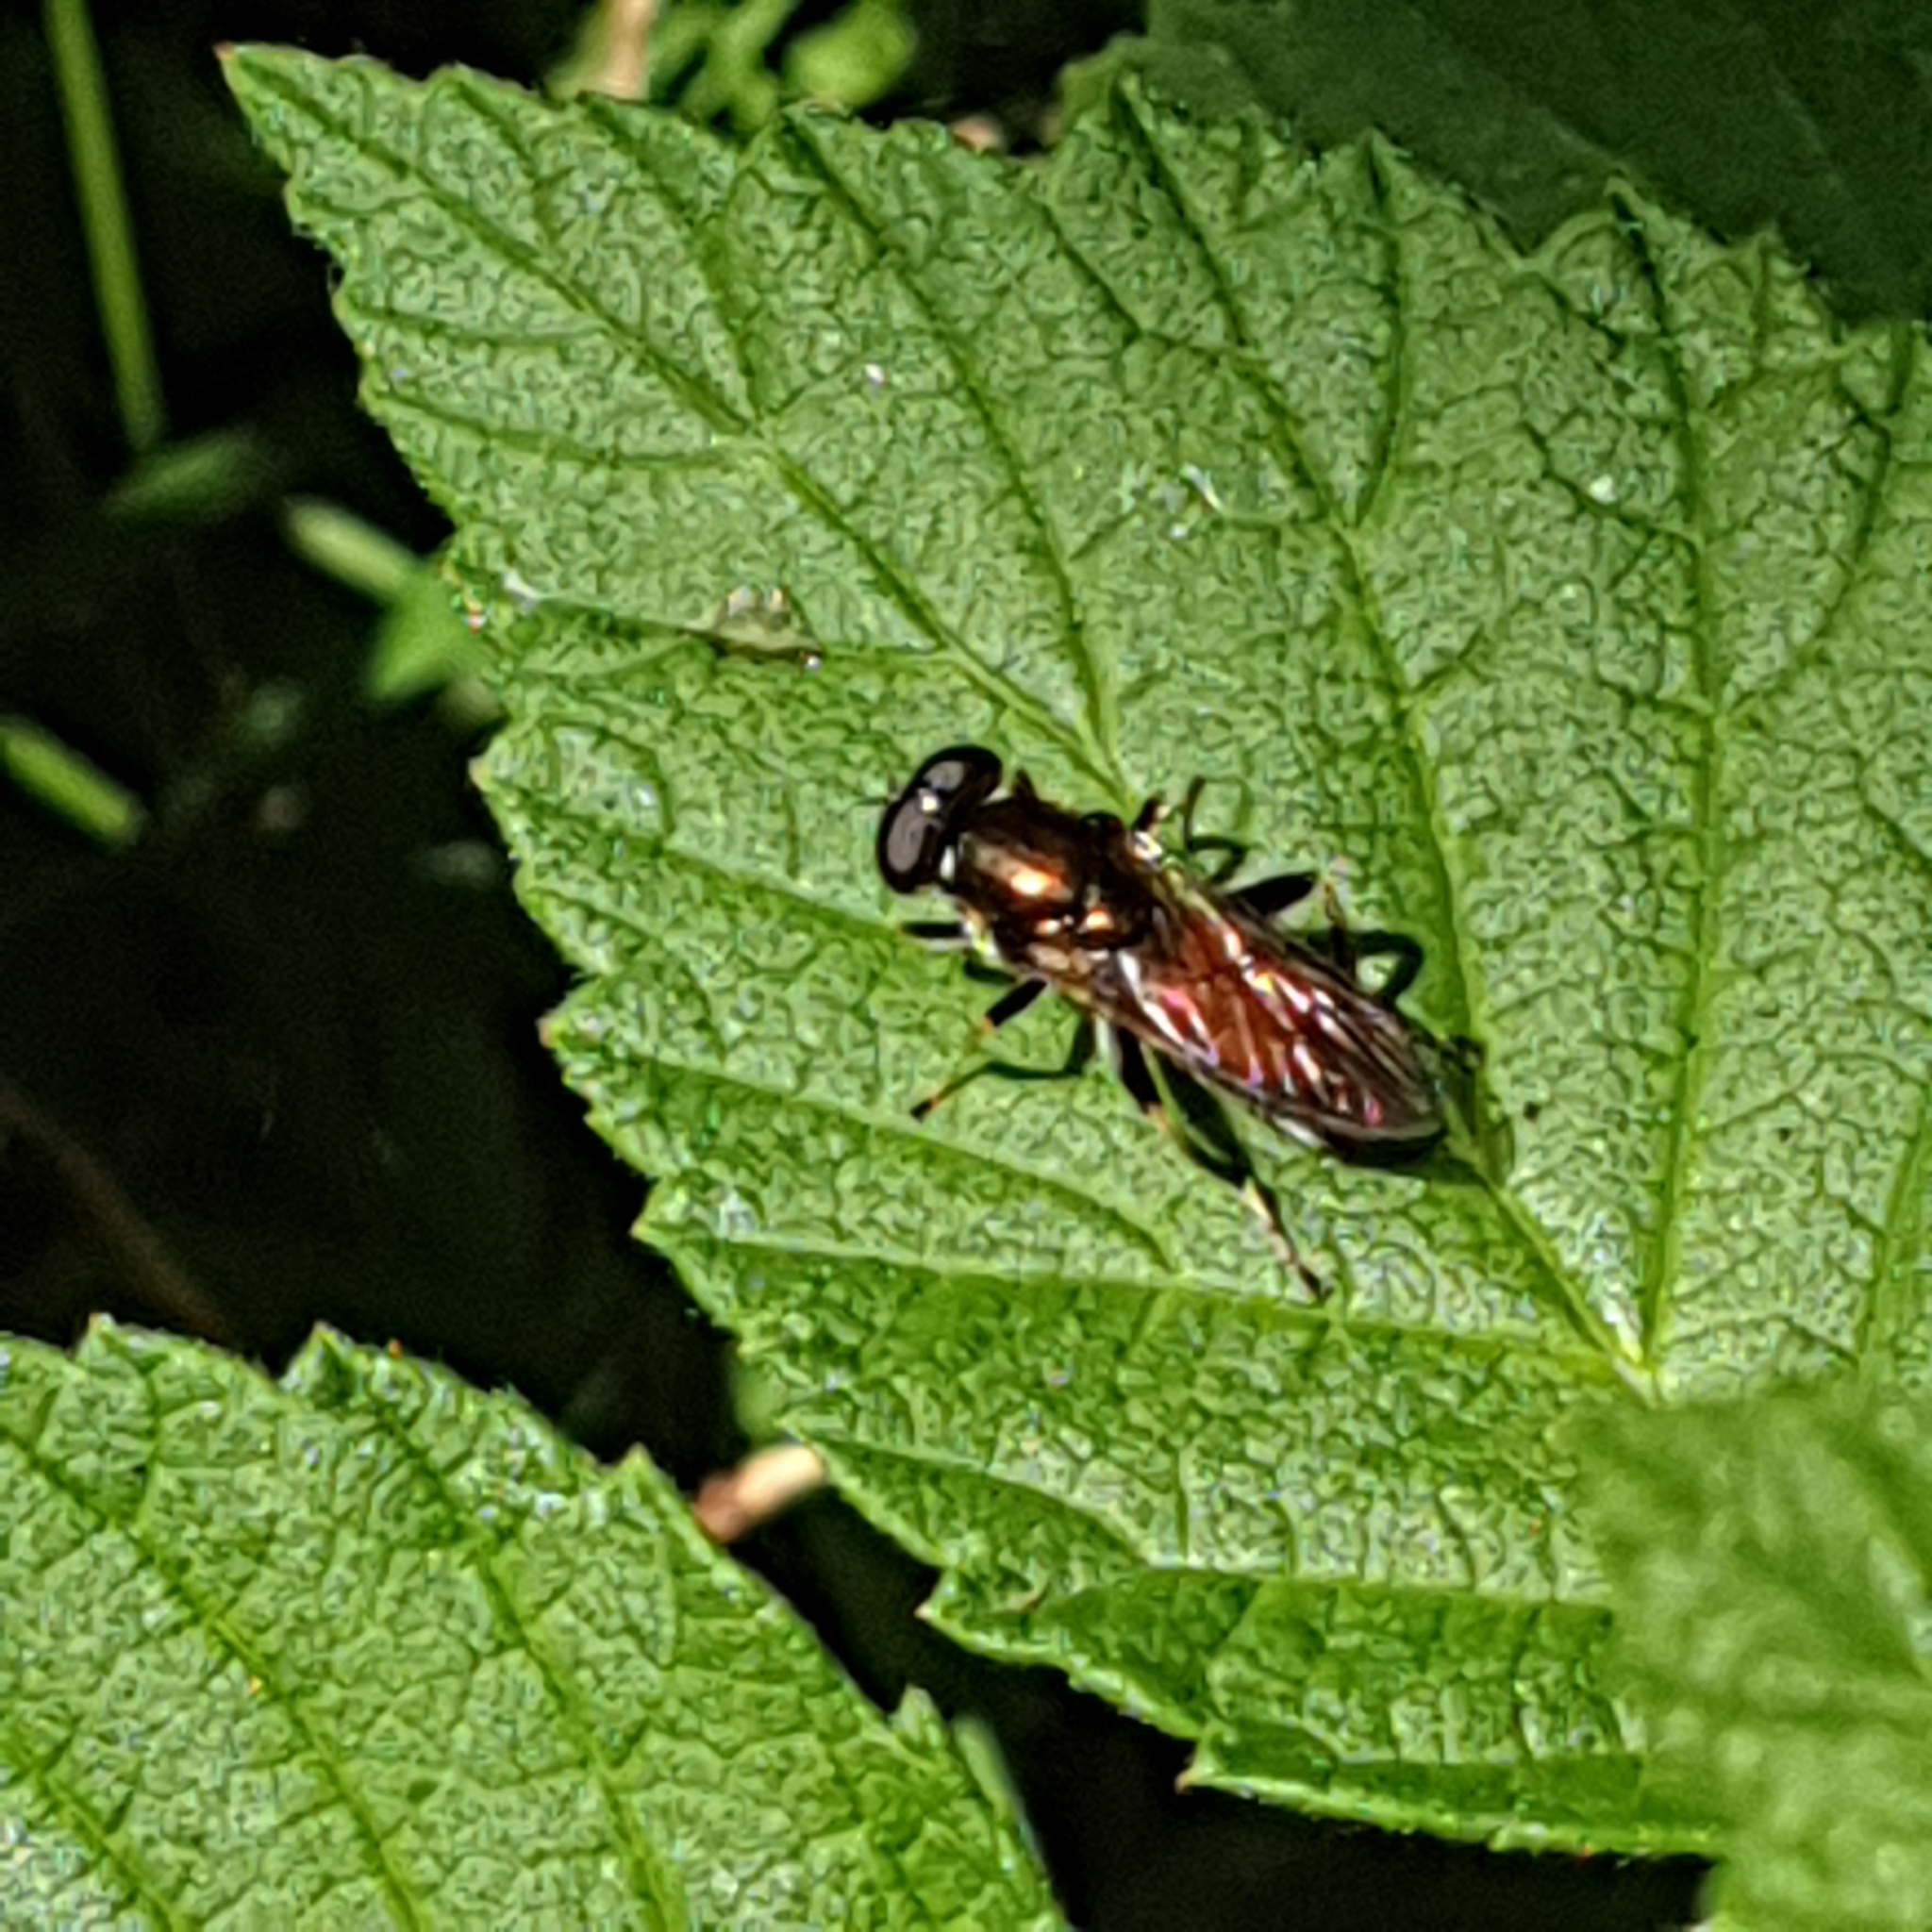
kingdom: Animalia
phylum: Arthropoda
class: Insecta
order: Diptera
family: Syrphidae
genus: Xylota
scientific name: Xylota segnis
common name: Brown-toed forest fly
